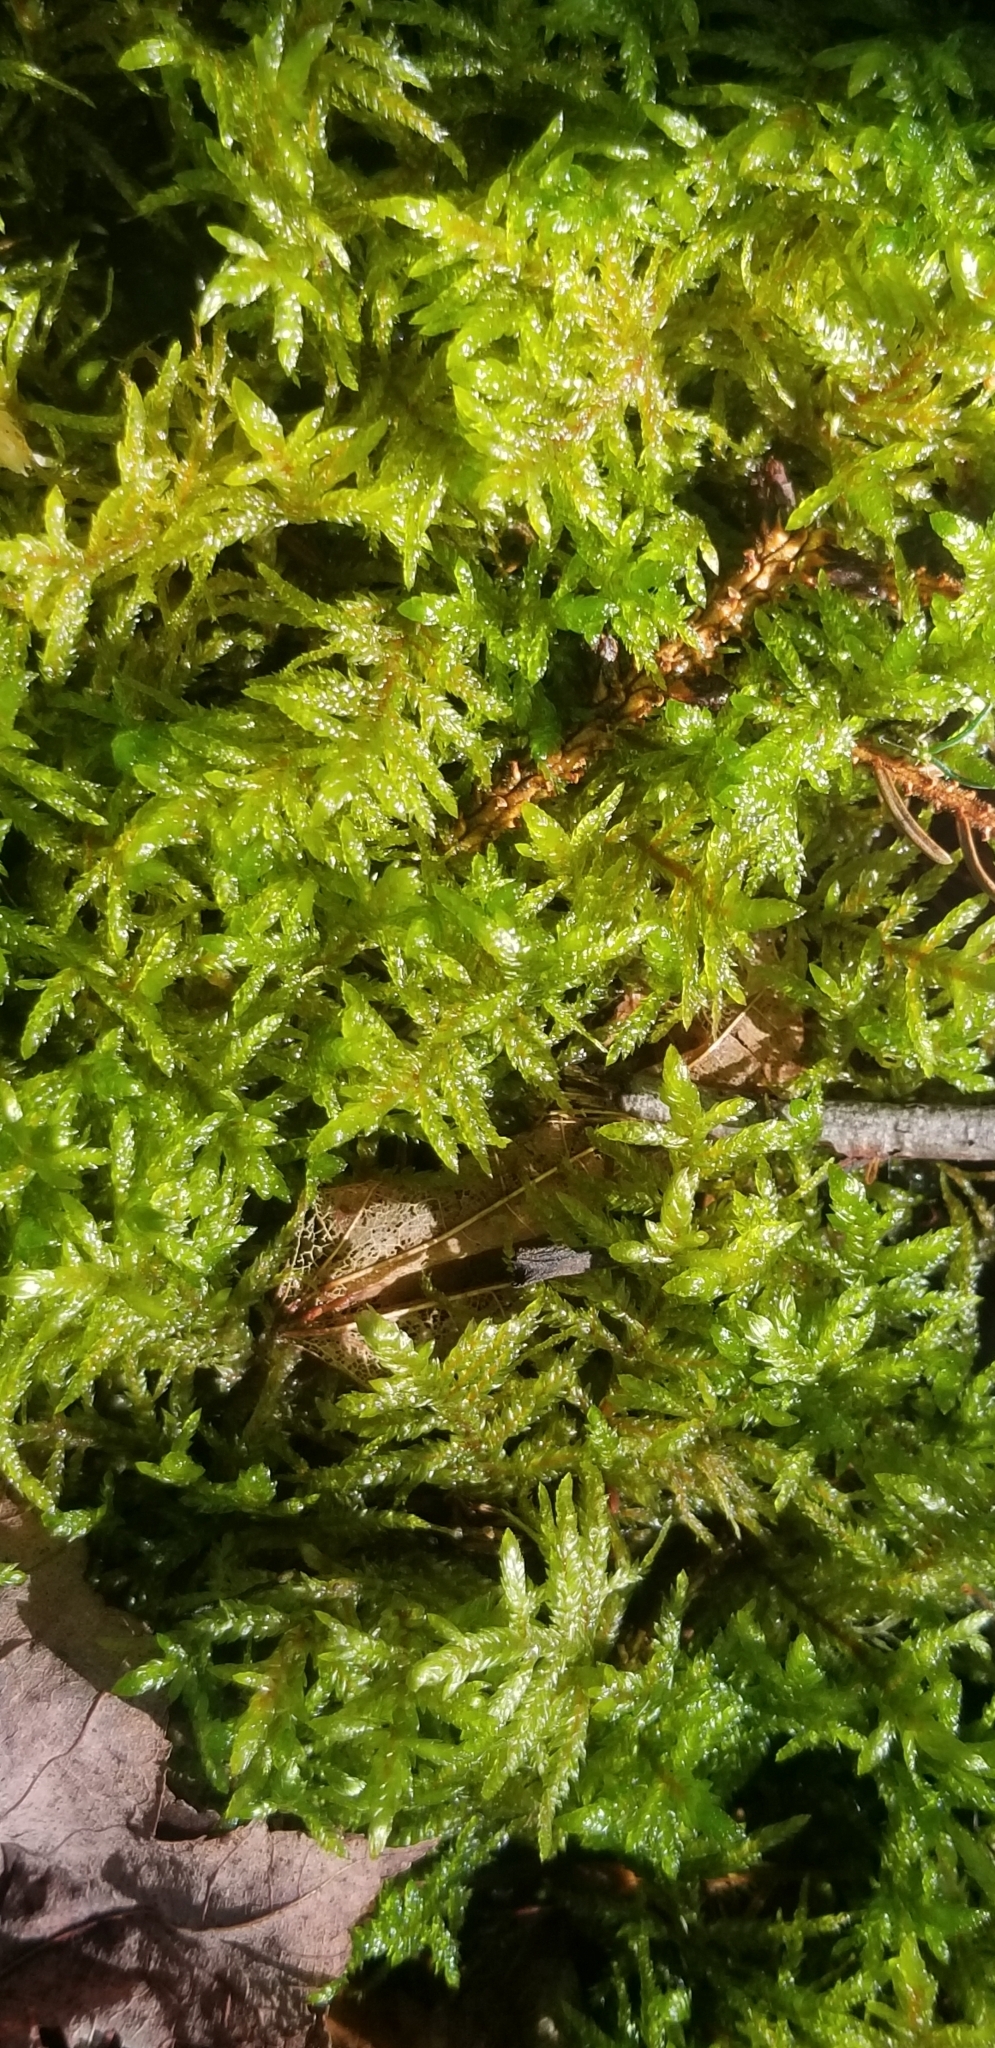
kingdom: Plantae
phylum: Bryophyta
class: Bryopsida
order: Hypnales
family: Callicladiaceae
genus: Callicladium
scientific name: Callicladium imponens
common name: Brocade moss
